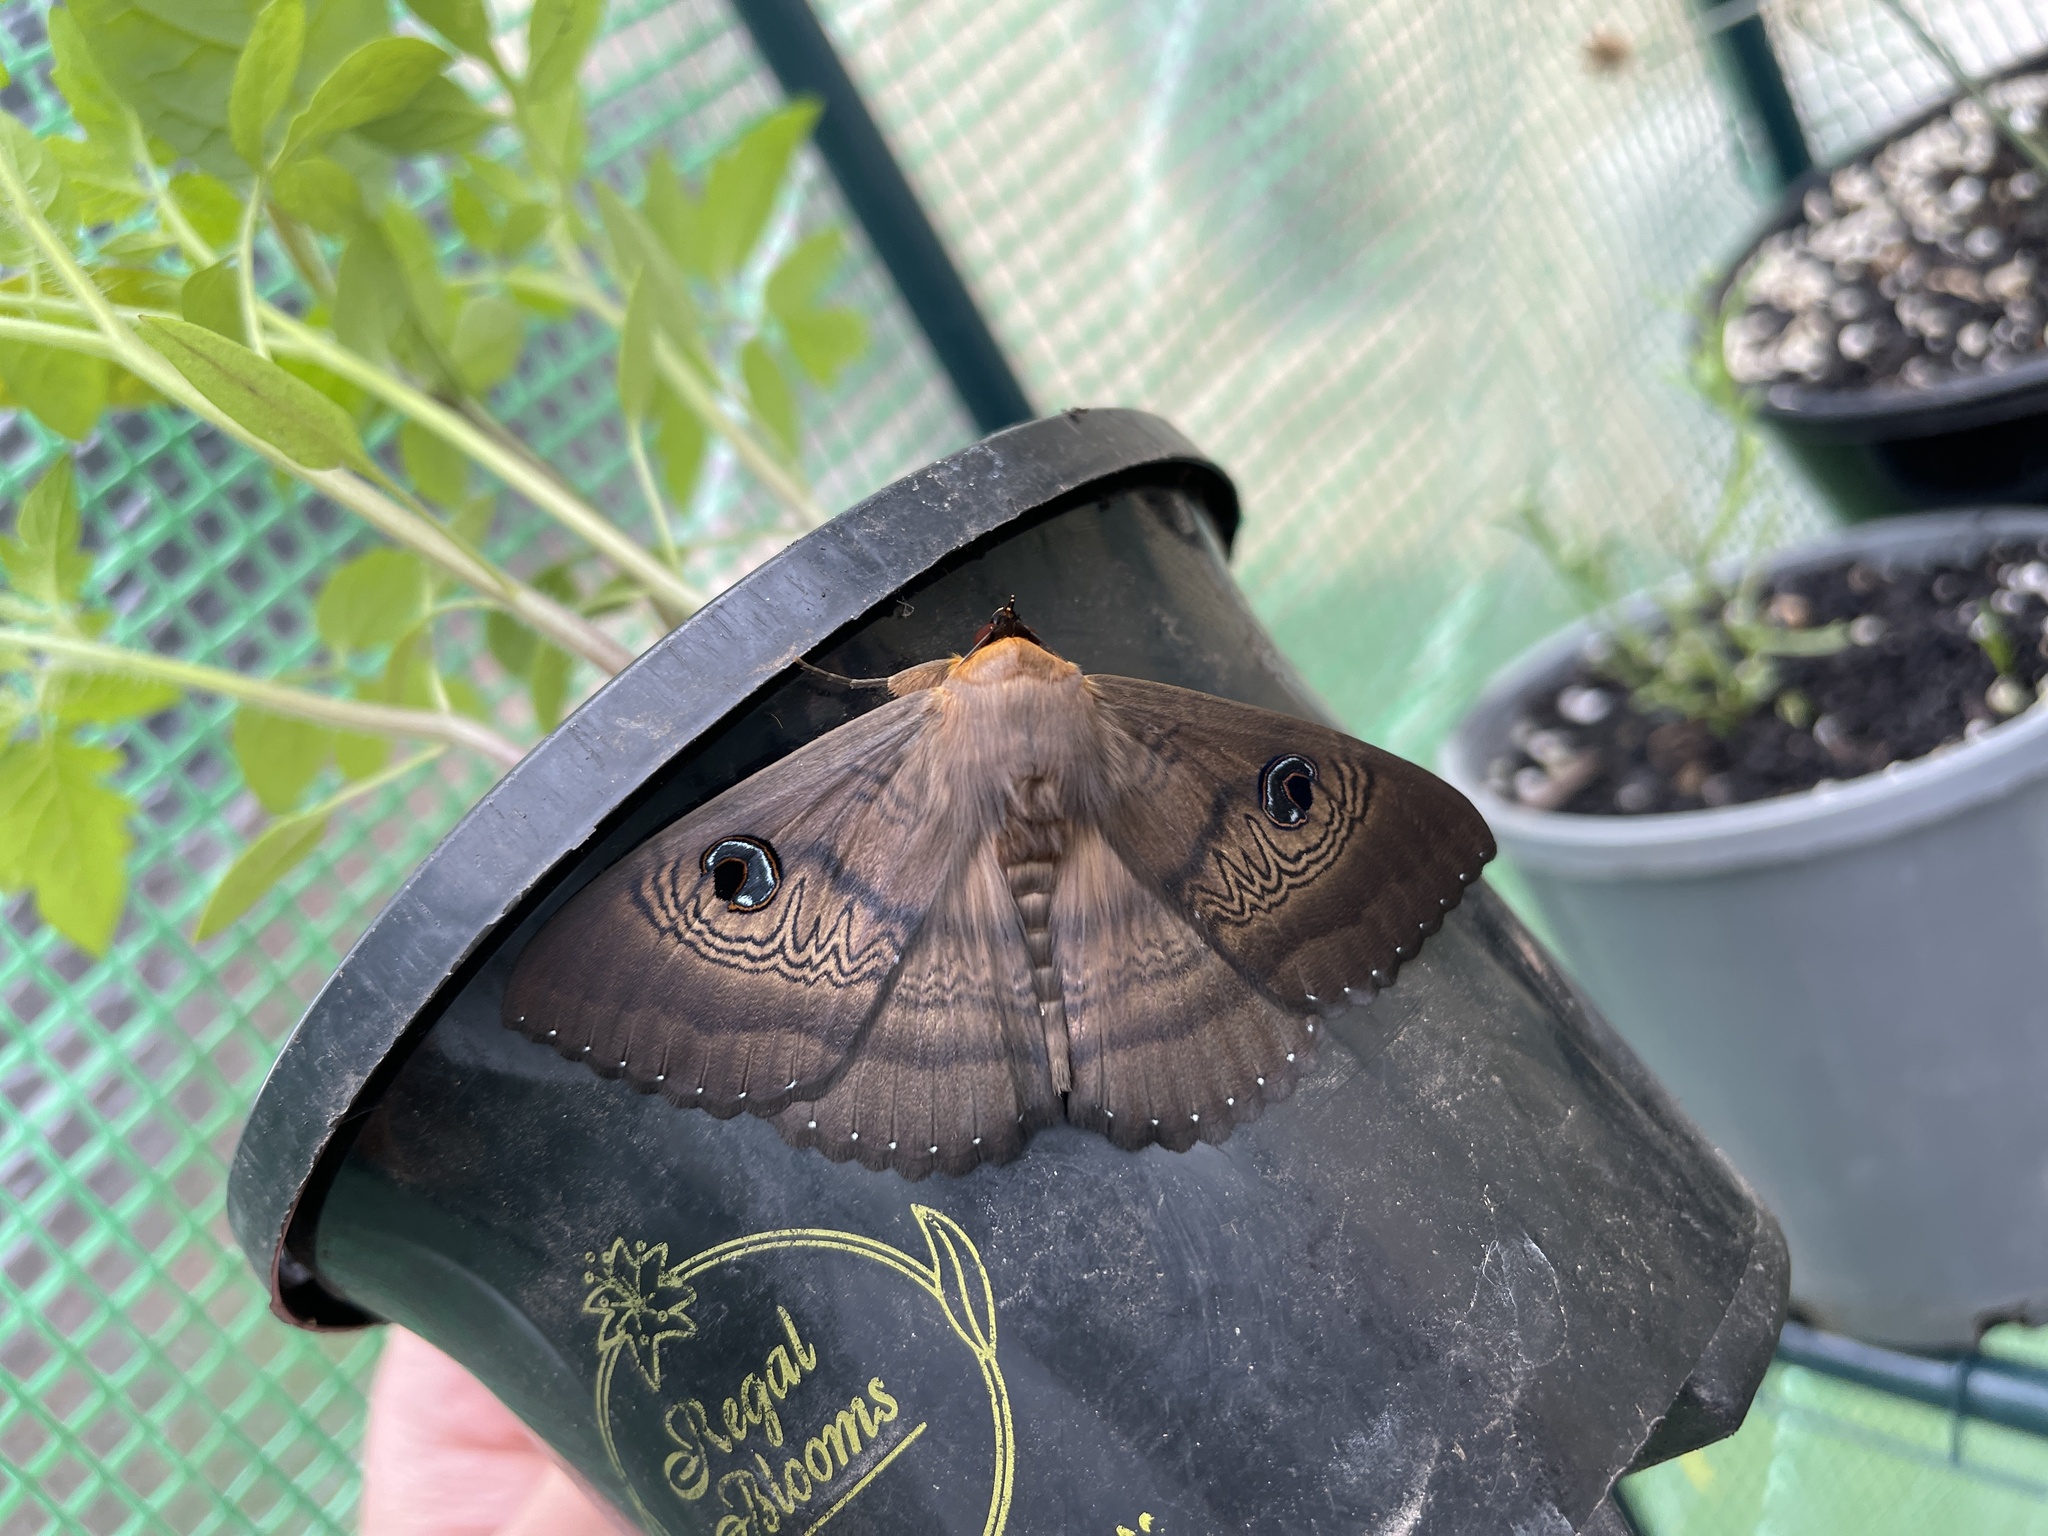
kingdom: Animalia
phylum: Arthropoda
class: Insecta
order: Lepidoptera
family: Erebidae
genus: Dasypodia
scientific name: Dasypodia selenophora
